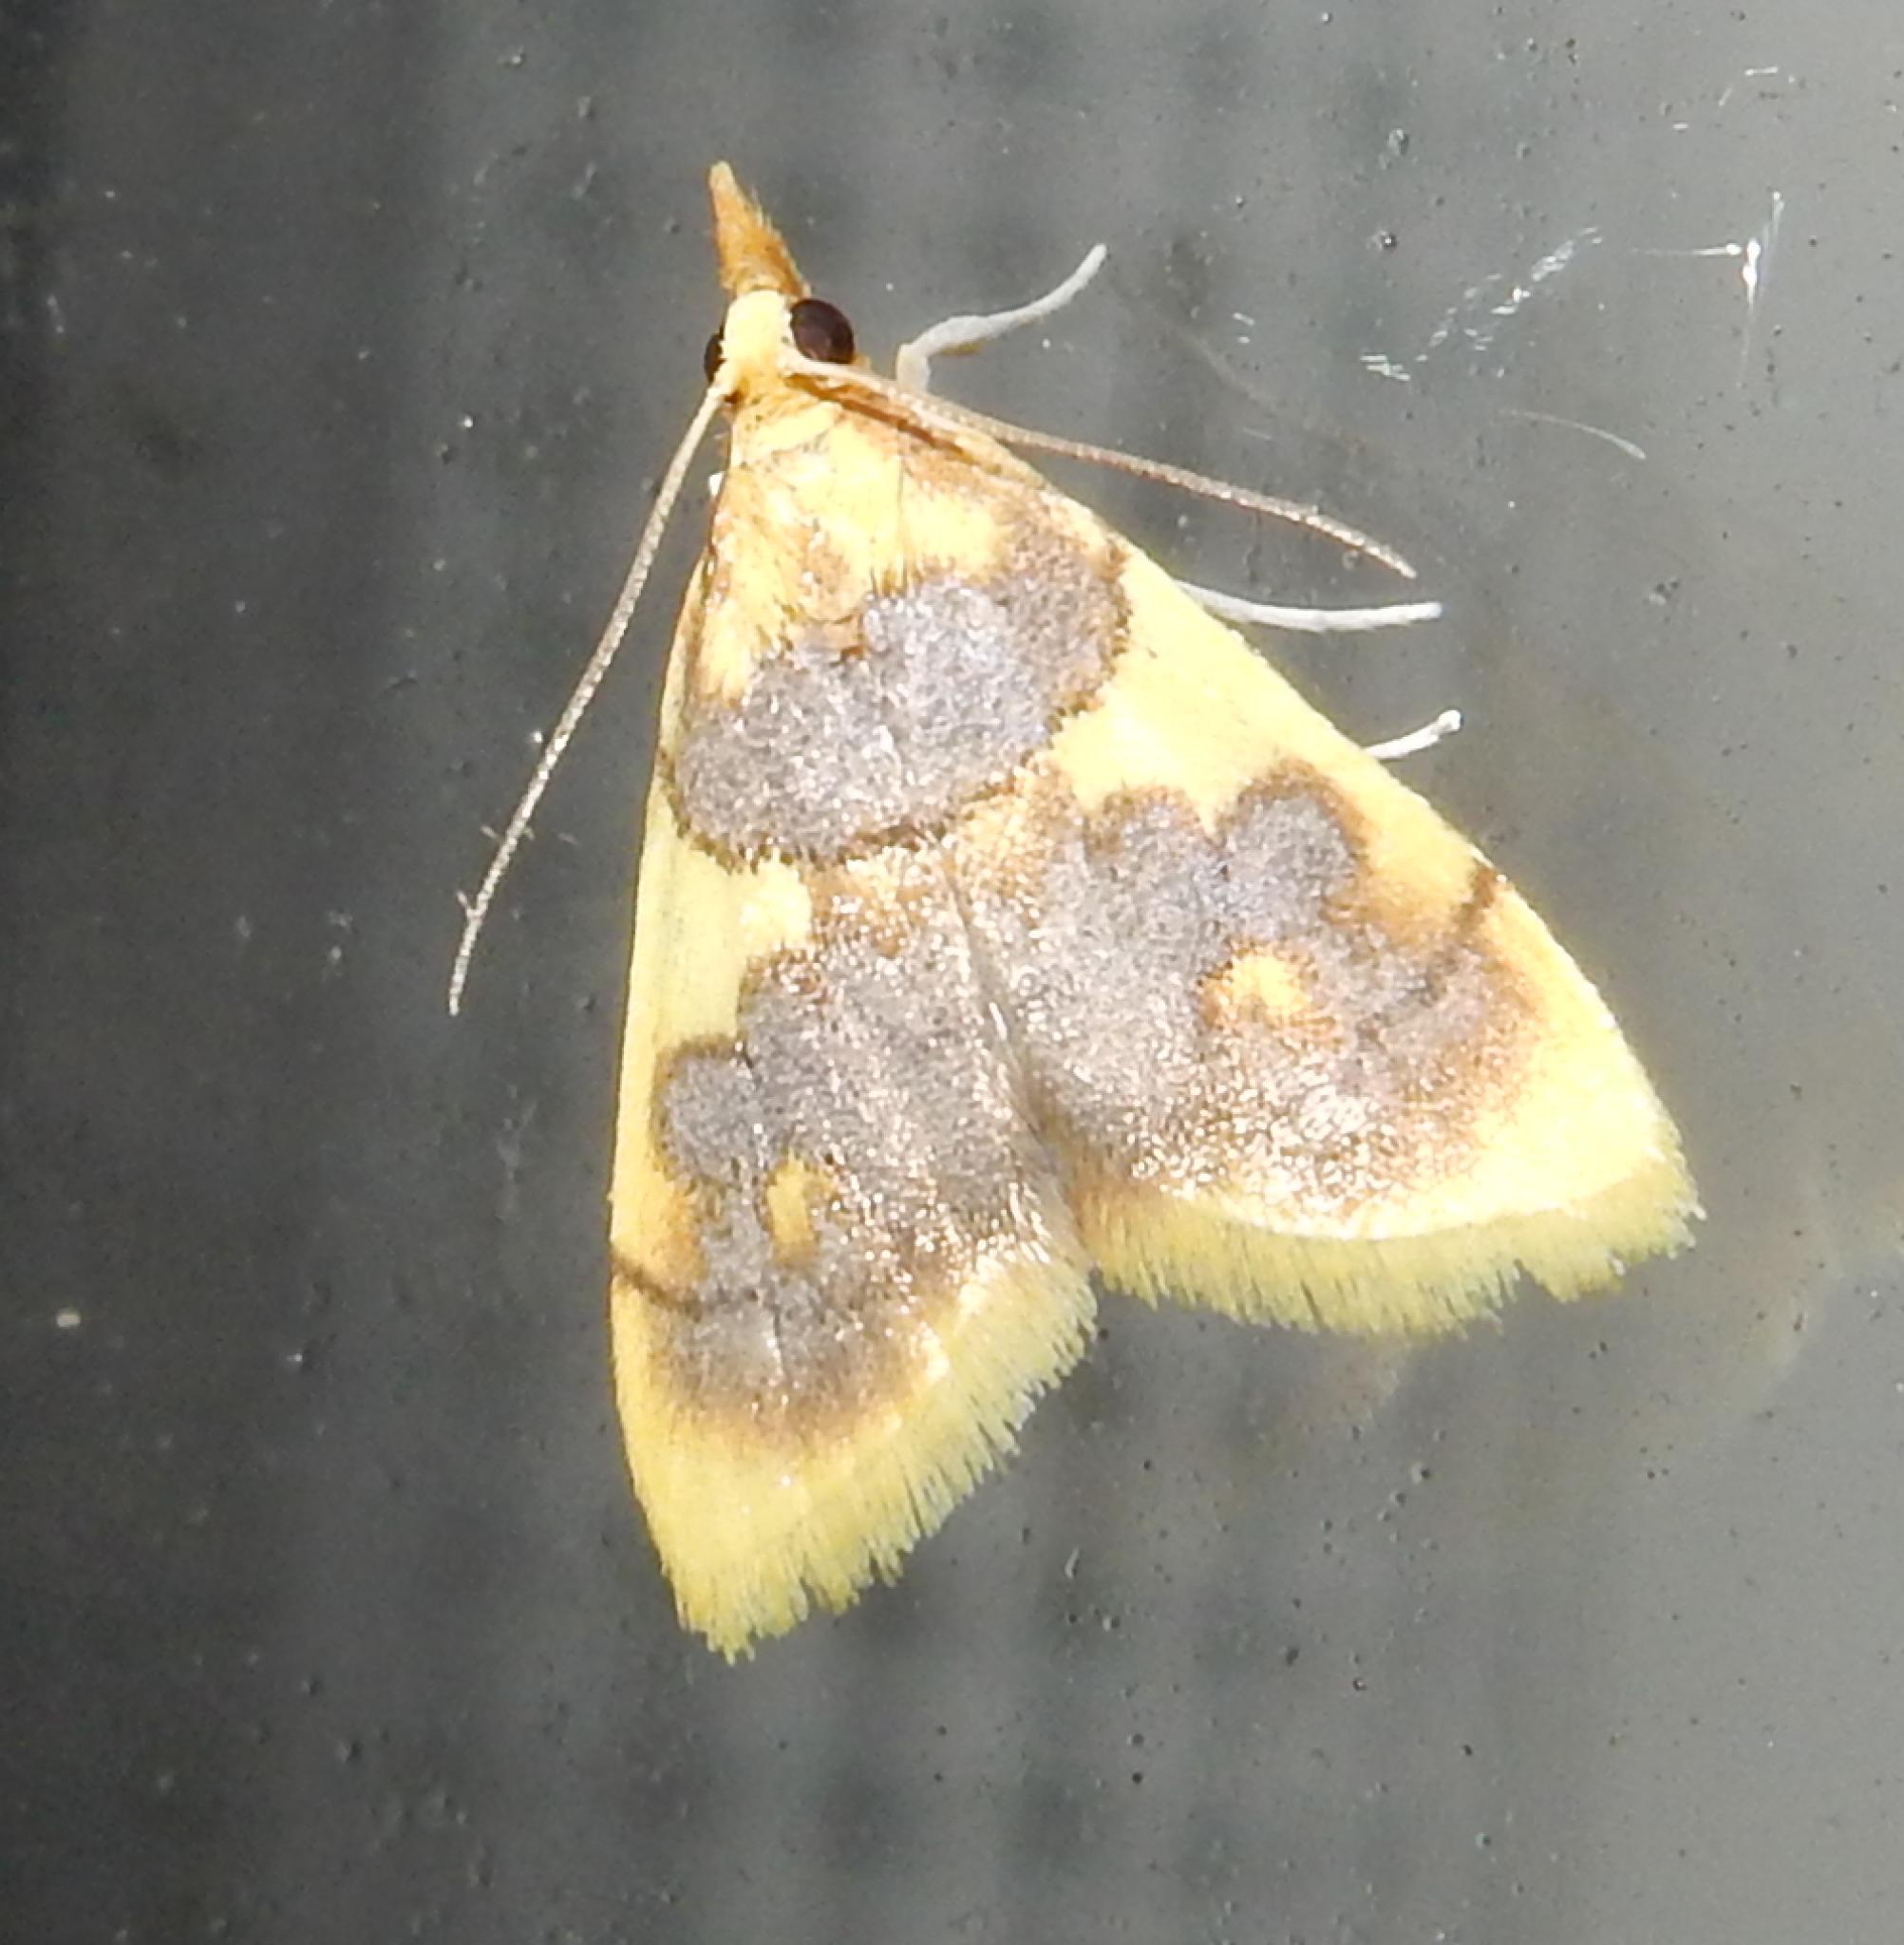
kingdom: Animalia
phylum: Arthropoda
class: Insecta
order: Lepidoptera
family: Crambidae
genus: Thliptoceras
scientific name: Thliptoceras xanthocraspia
